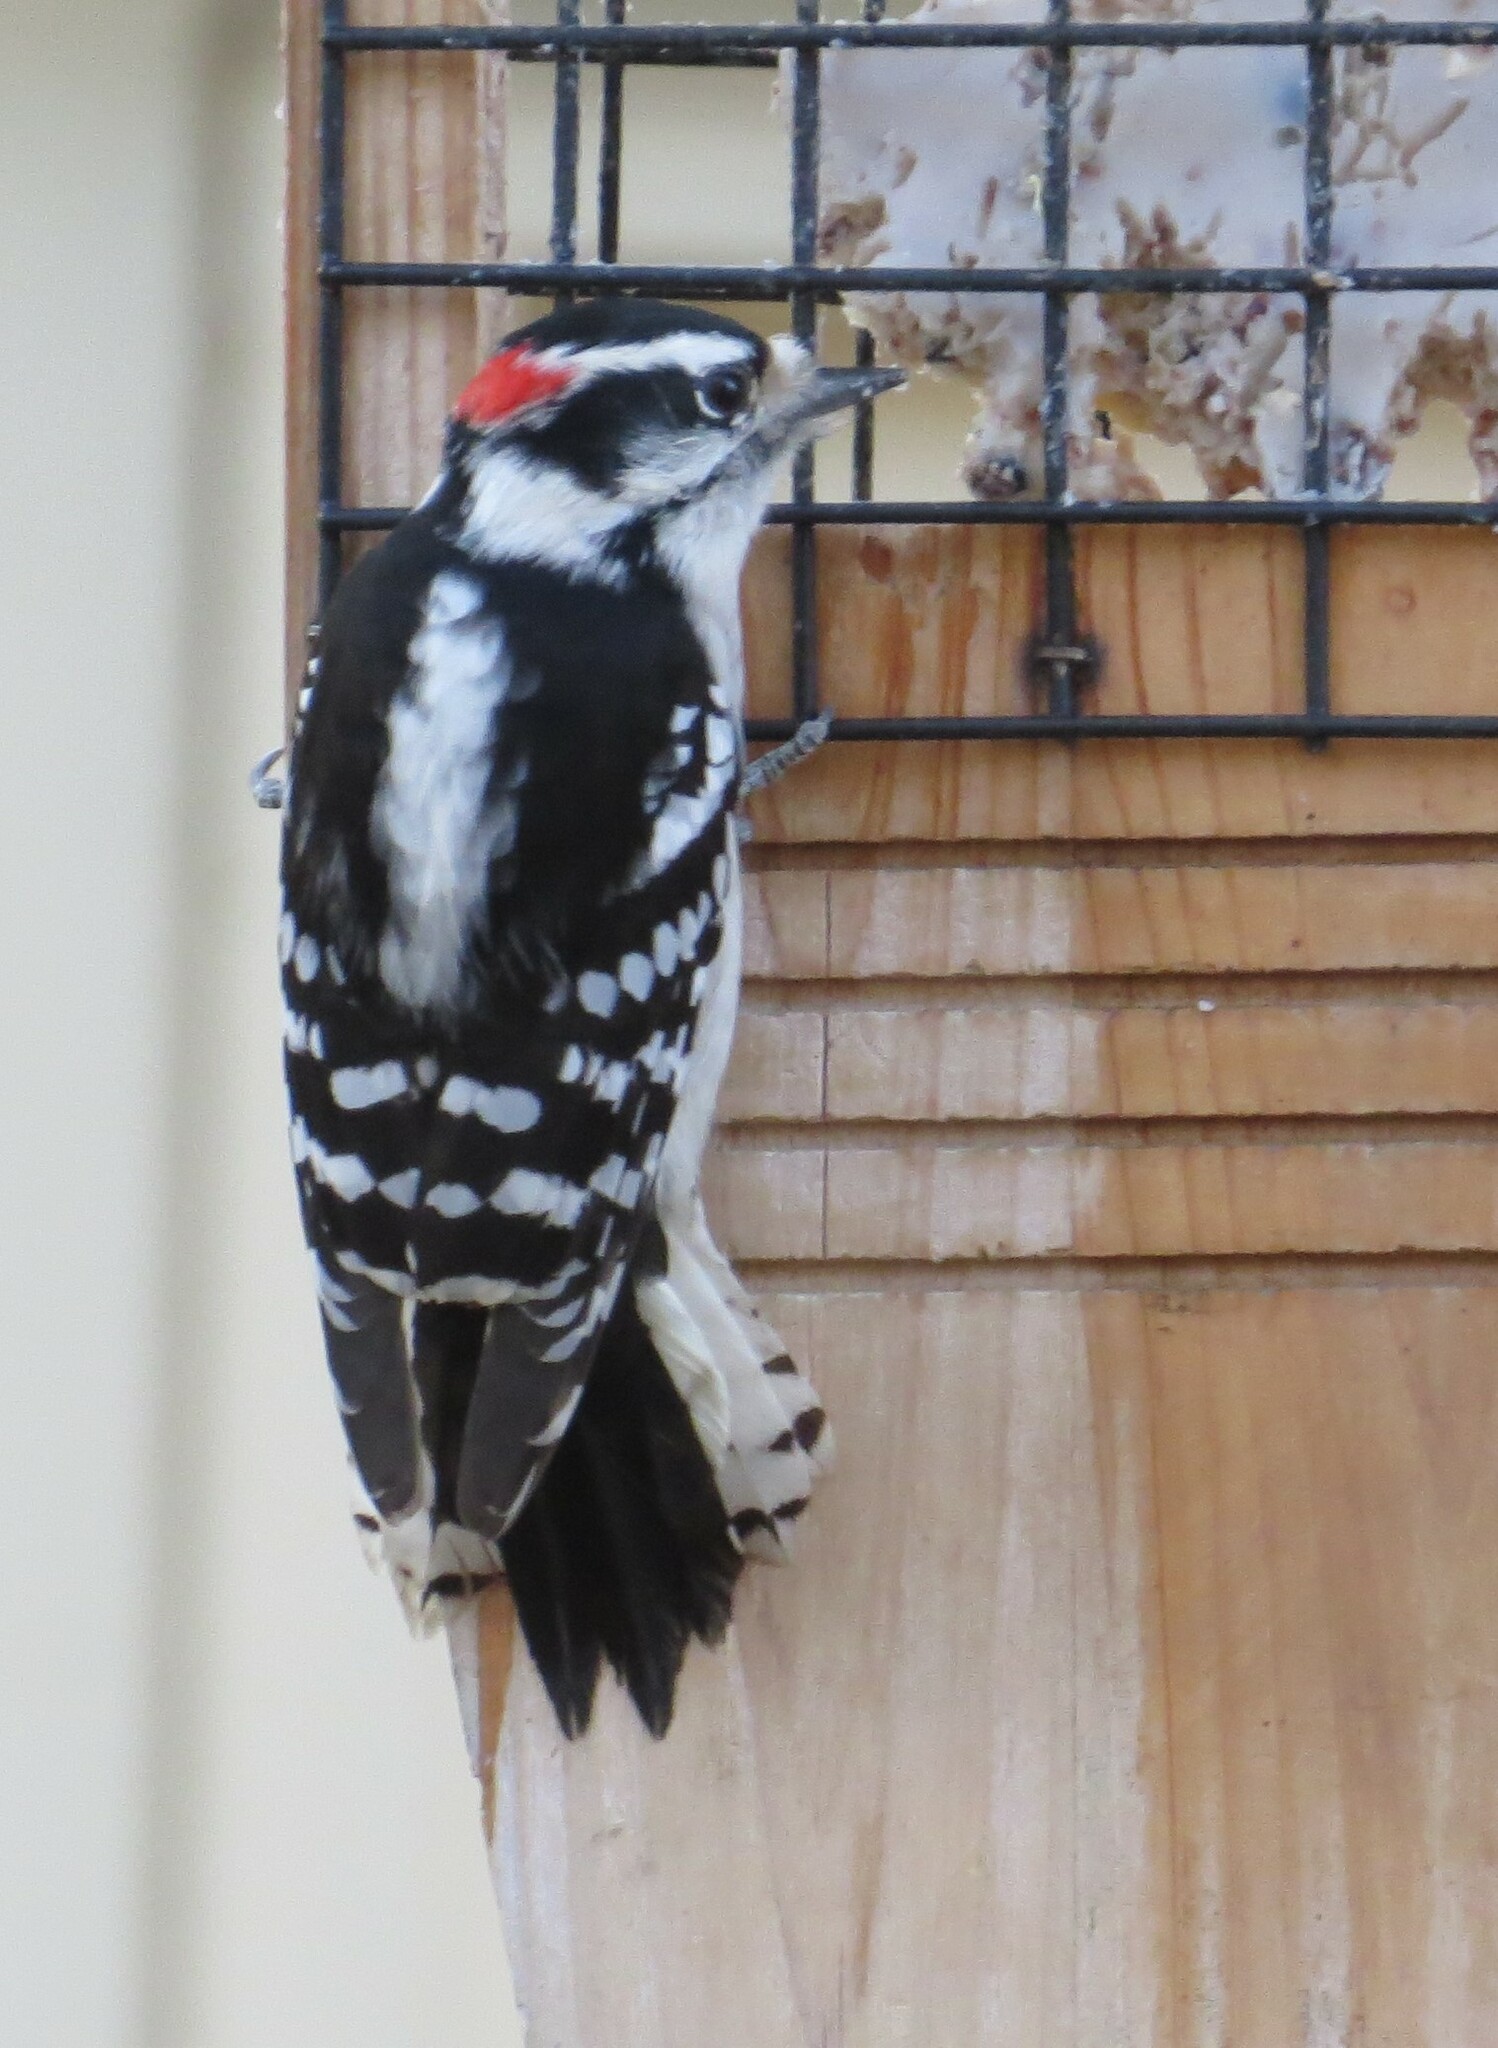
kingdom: Animalia
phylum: Chordata
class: Aves
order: Piciformes
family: Picidae
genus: Dryobates
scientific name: Dryobates pubescens
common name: Downy woodpecker
